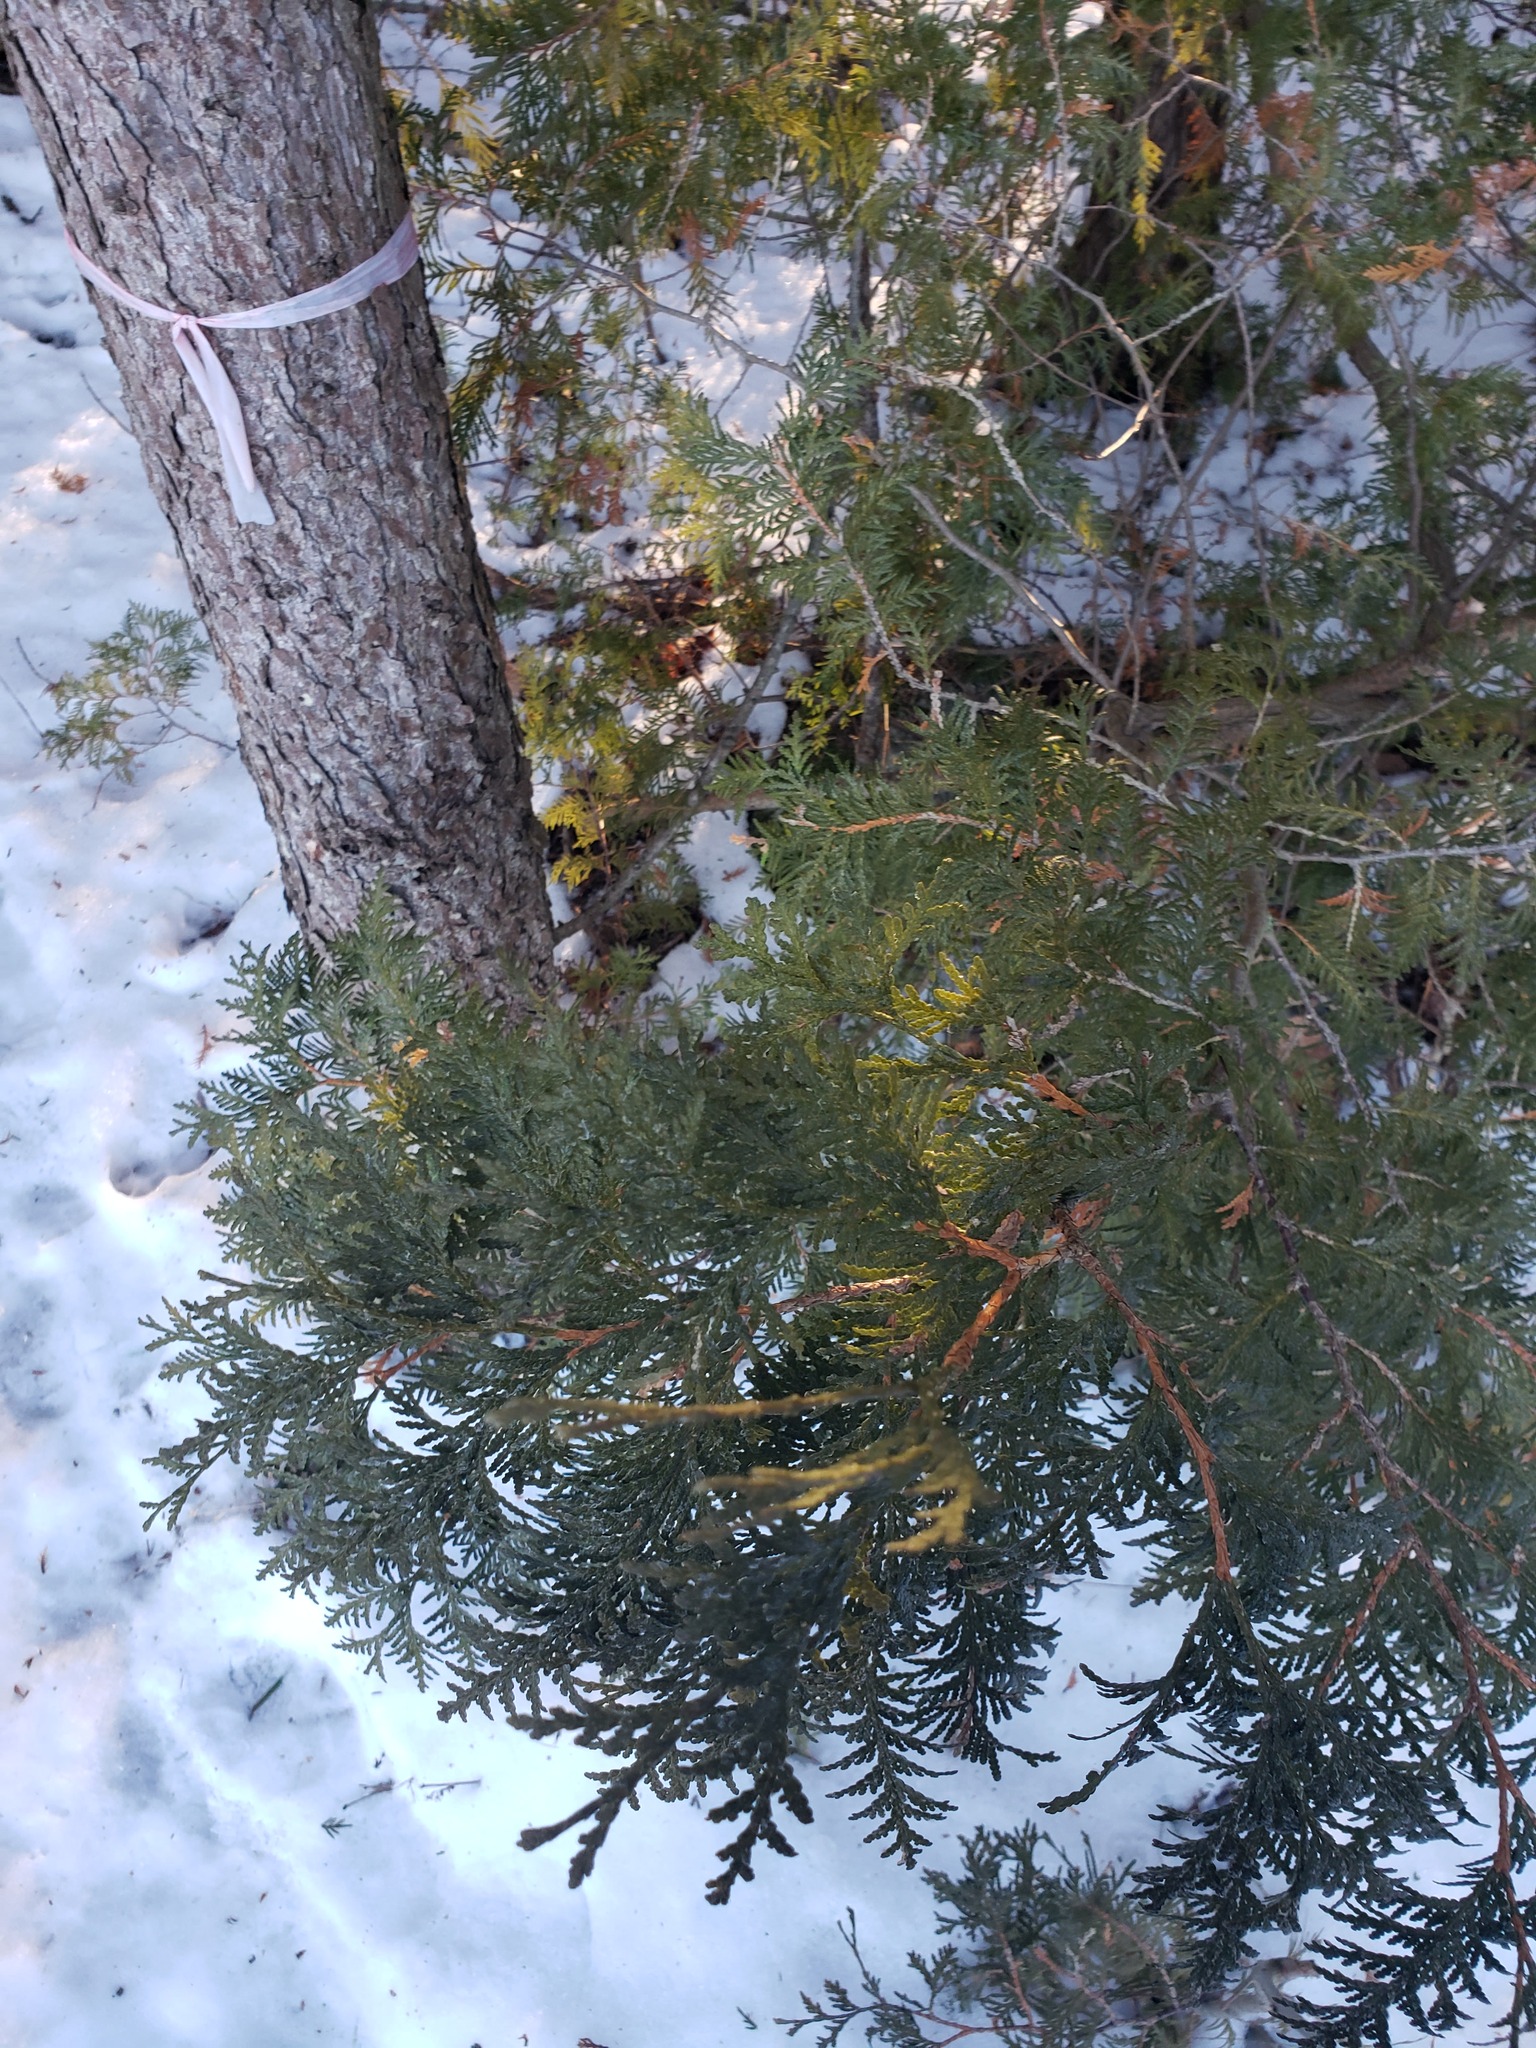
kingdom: Plantae
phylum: Tracheophyta
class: Pinopsida
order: Pinales
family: Cupressaceae
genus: Thuja
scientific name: Thuja occidentalis
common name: Northern white-cedar
